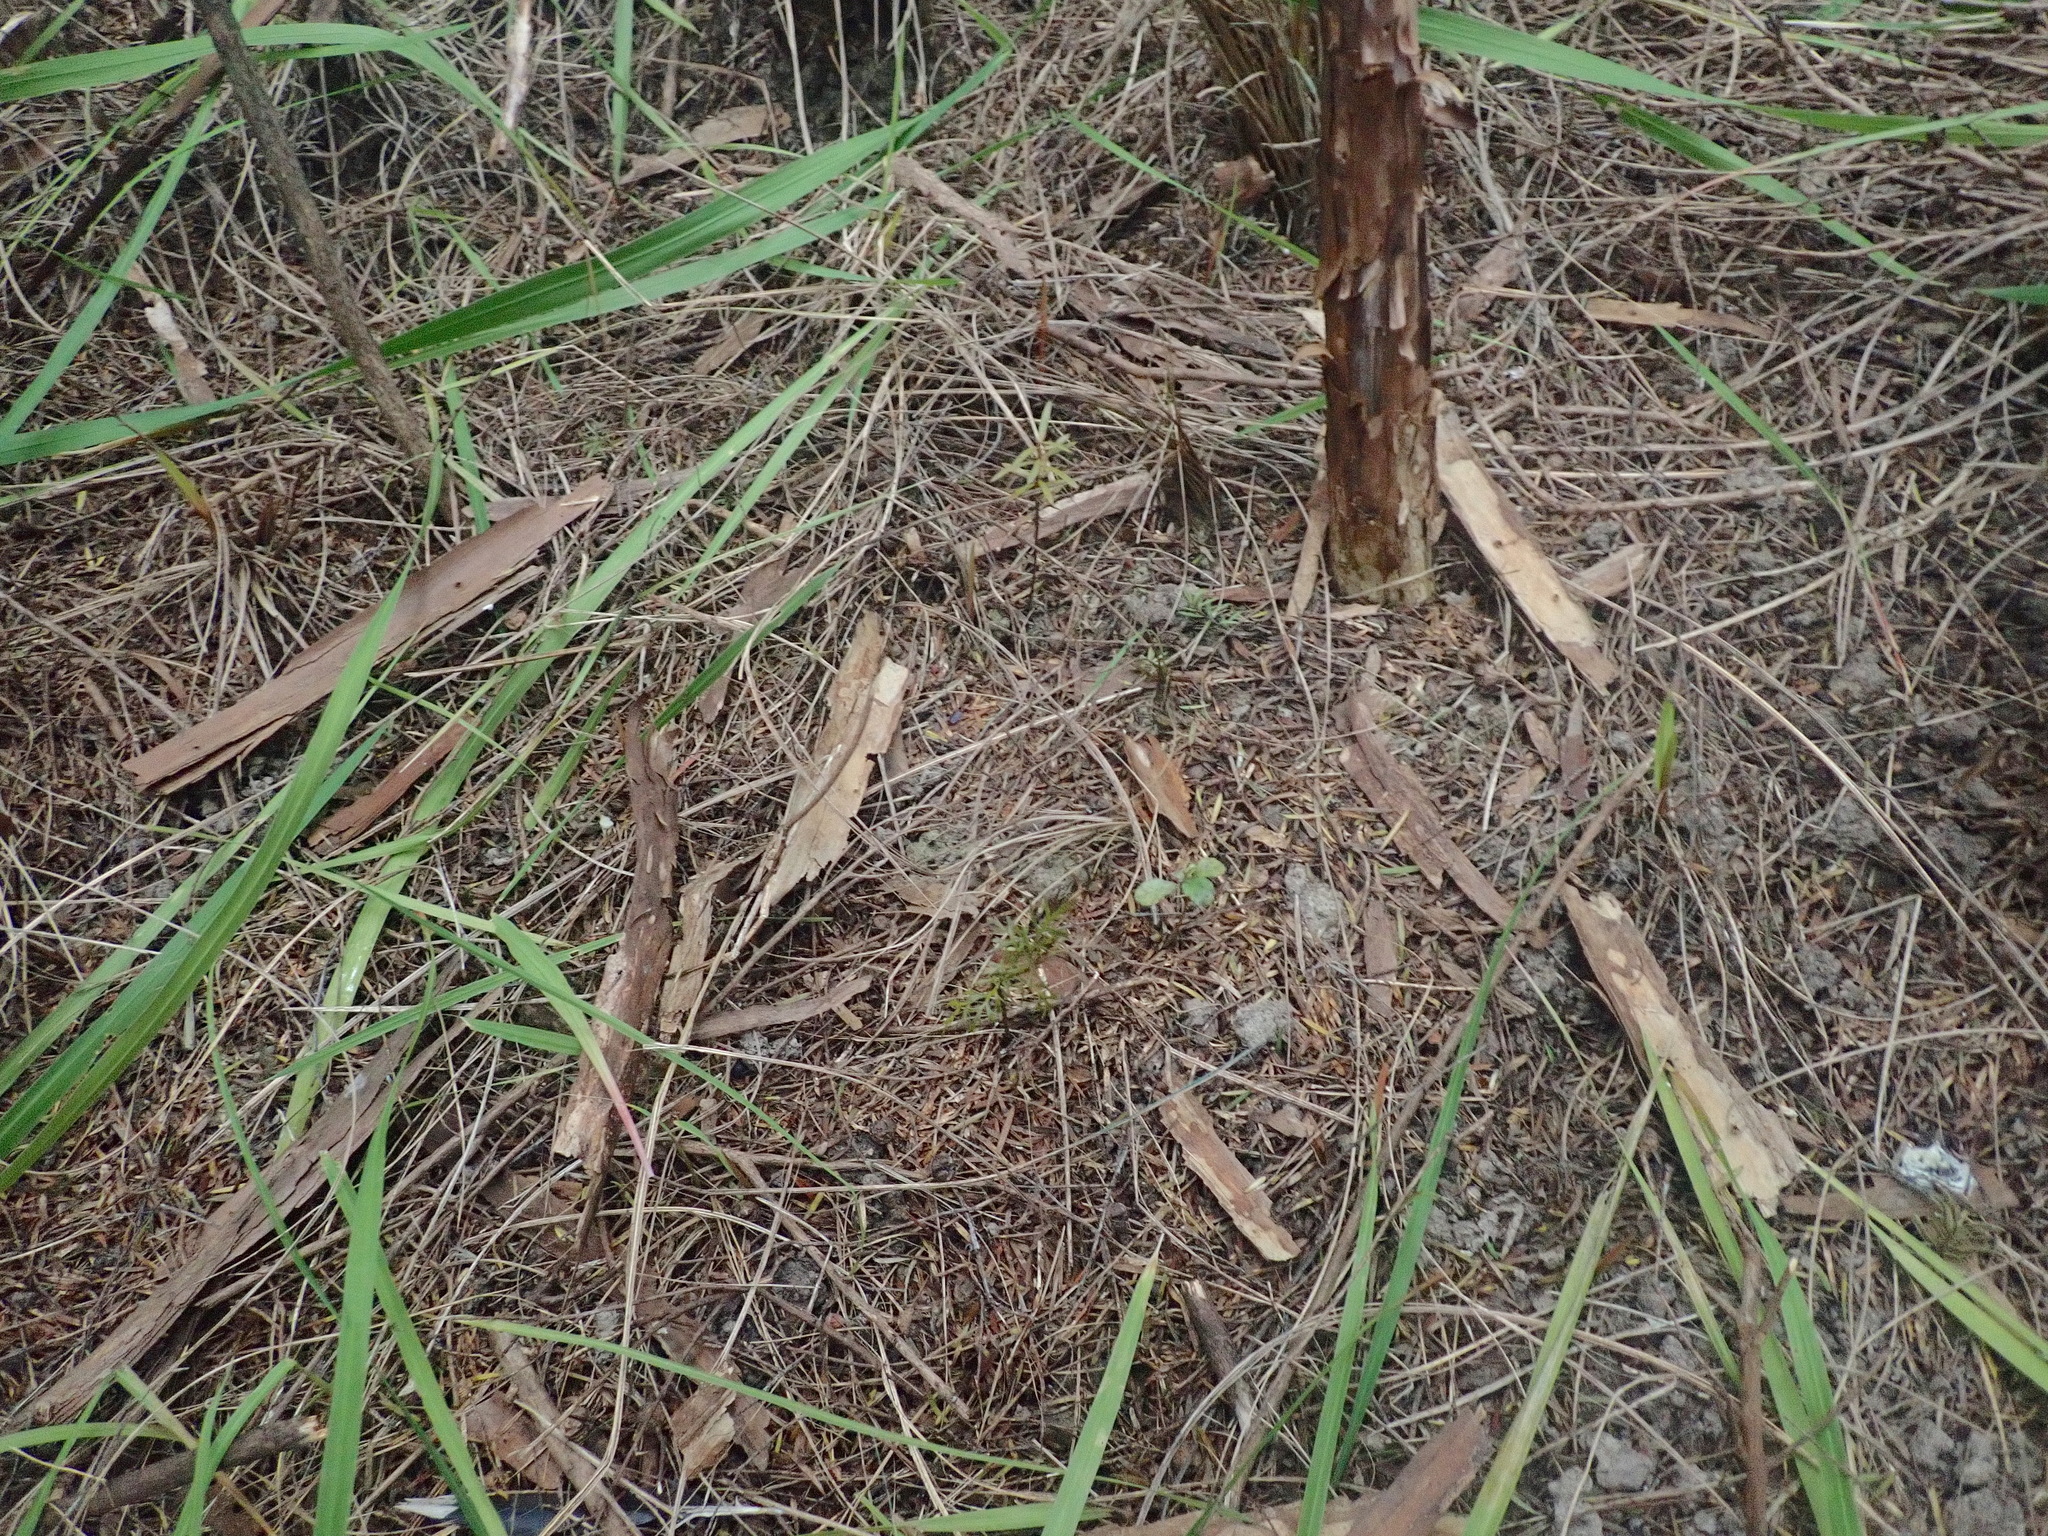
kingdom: Plantae
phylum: Tracheophyta
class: Pinopsida
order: Pinales
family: Phyllocladaceae
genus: Phyllocladus
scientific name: Phyllocladus trichomanoides
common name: Celery pine
